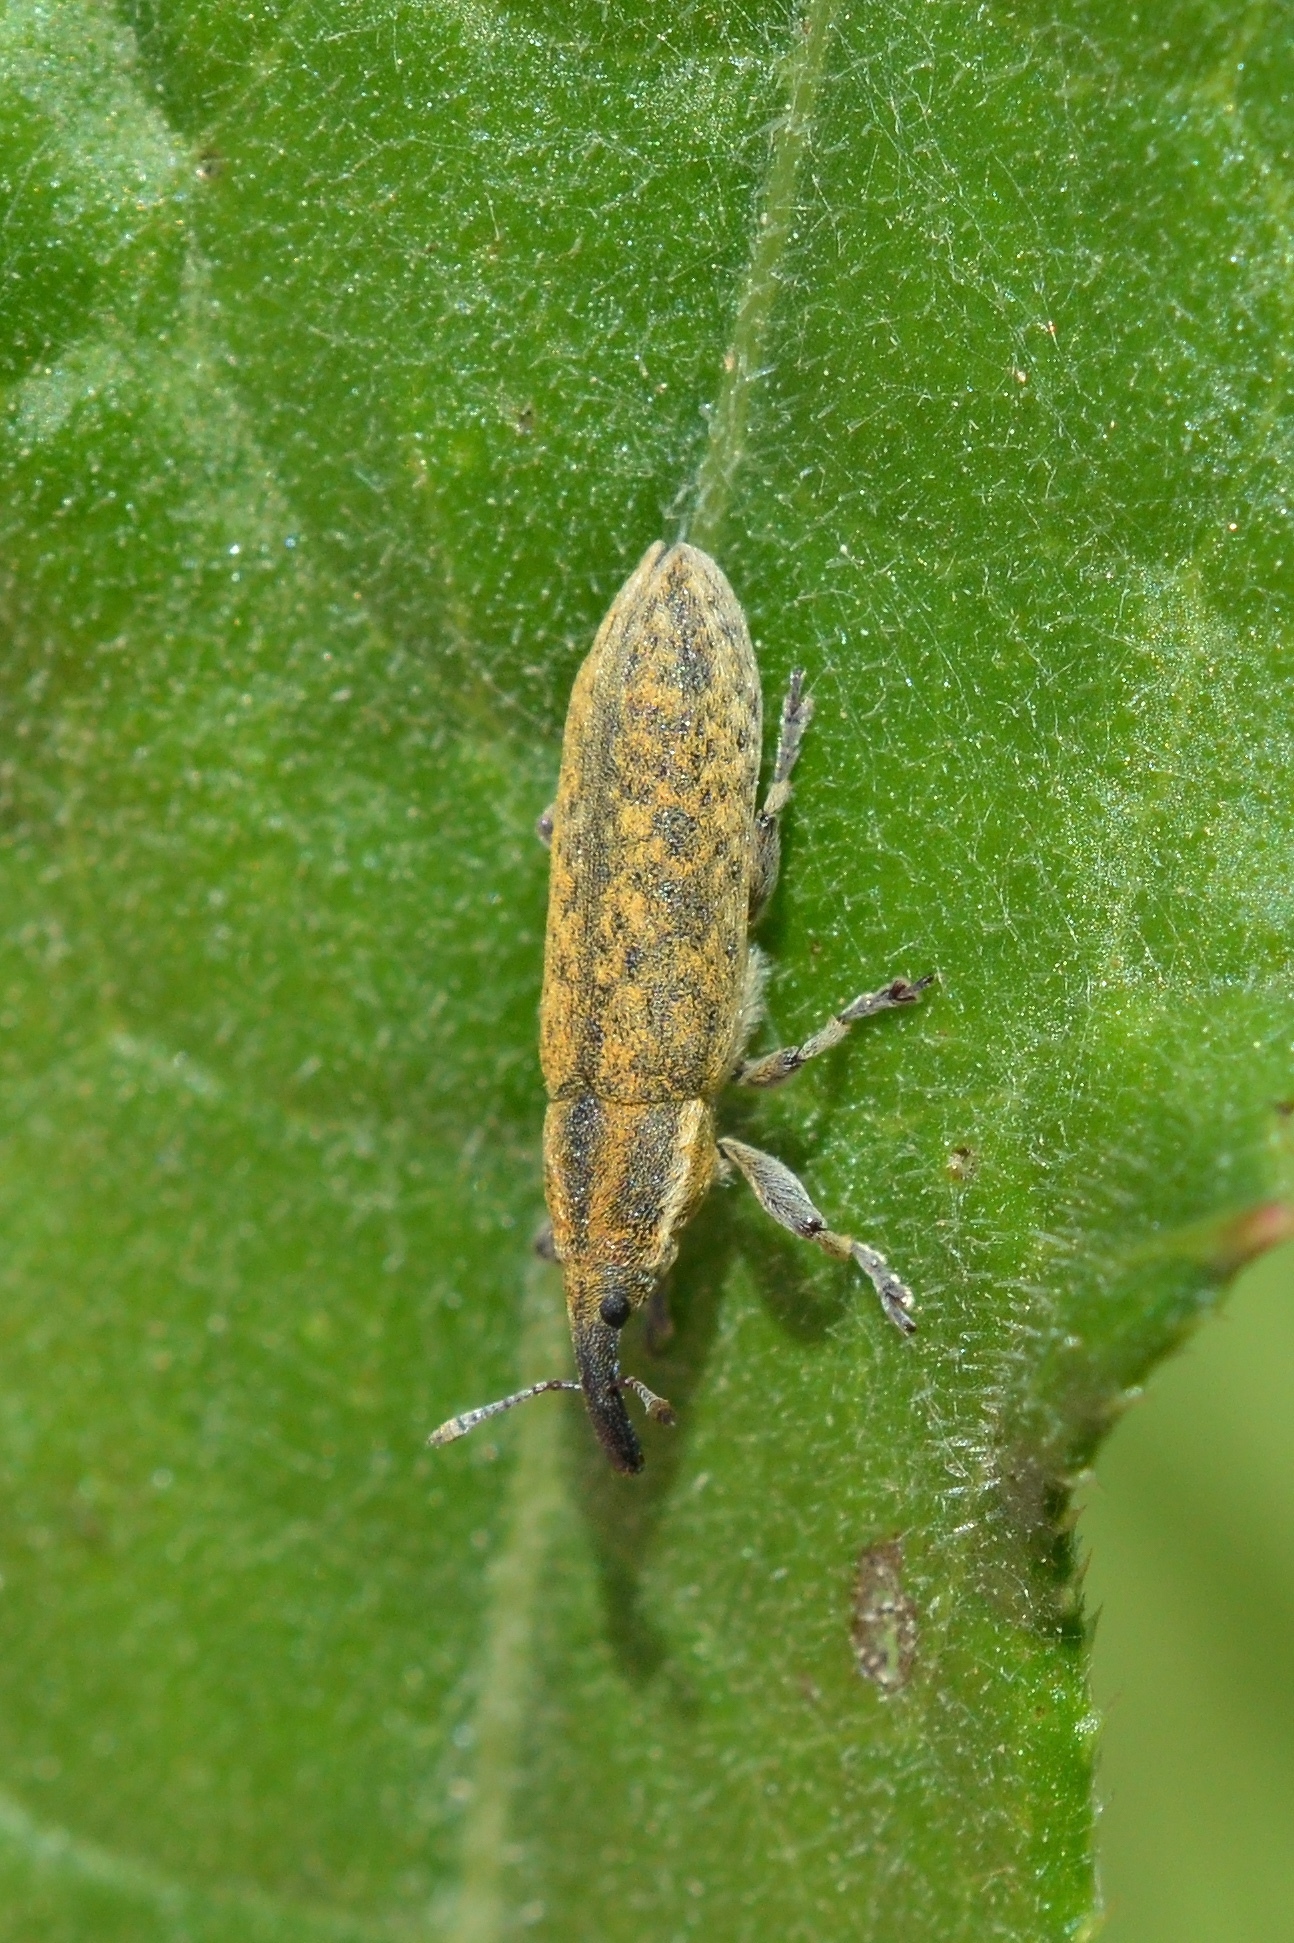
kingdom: Animalia
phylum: Arthropoda
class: Insecta
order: Coleoptera
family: Curculionidae
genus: Lixus
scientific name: Lixus filiformis
